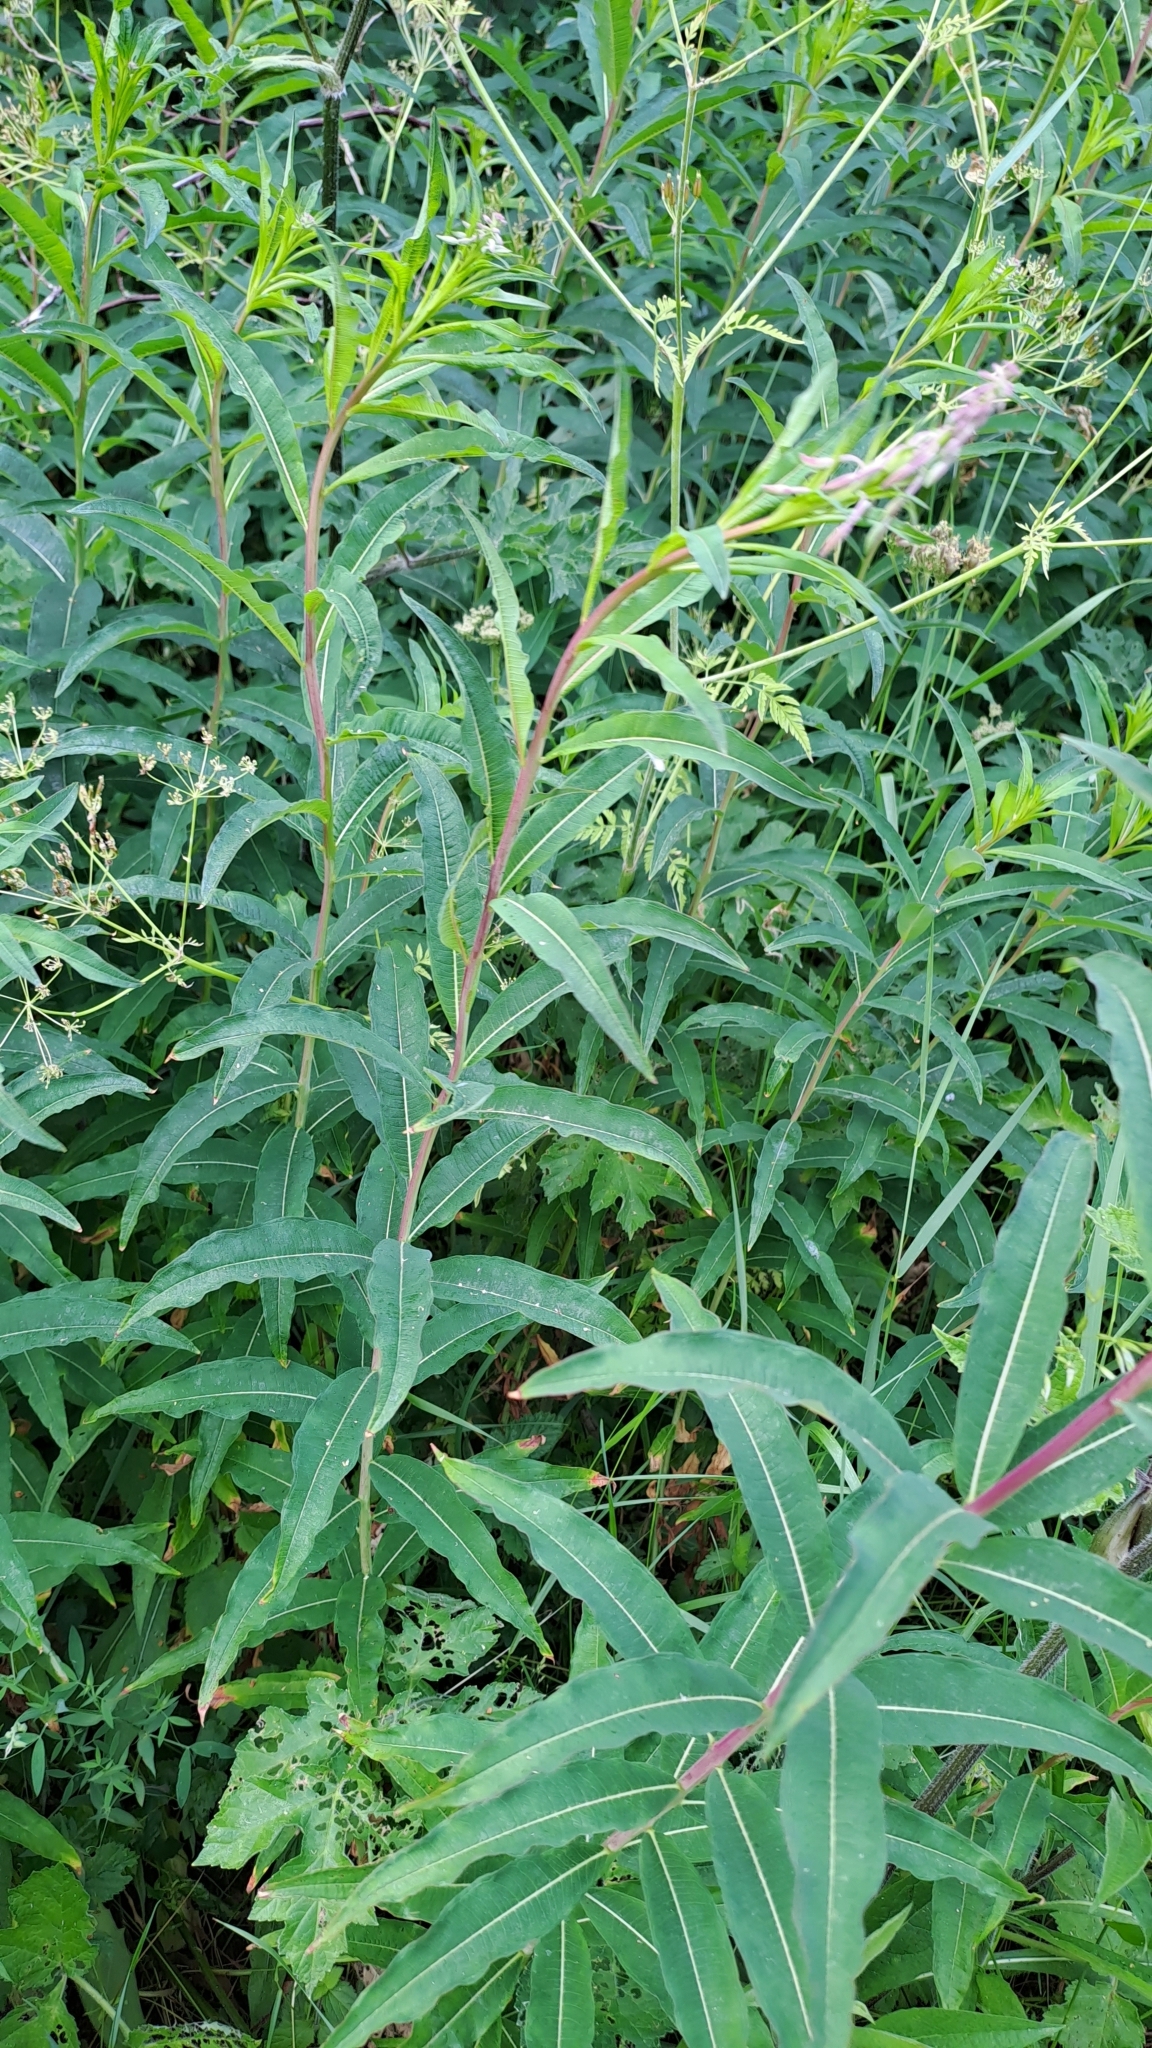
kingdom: Plantae
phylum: Tracheophyta
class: Magnoliopsida
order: Myrtales
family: Onagraceae
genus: Chamaenerion
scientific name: Chamaenerion angustifolium
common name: Fireweed
